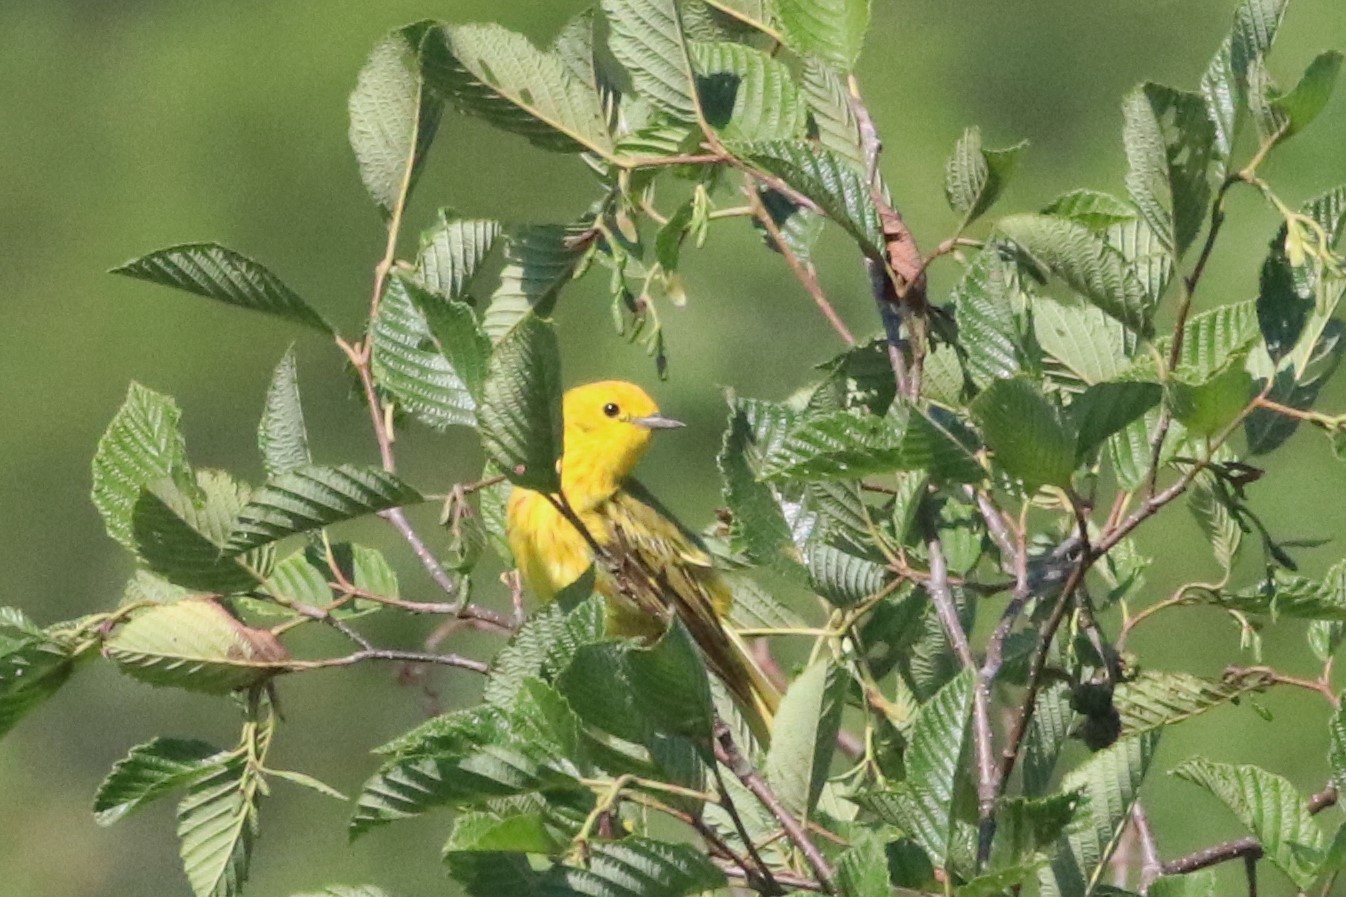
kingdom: Animalia
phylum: Chordata
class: Aves
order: Passeriformes
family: Parulidae
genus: Setophaga
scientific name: Setophaga petechia
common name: Yellow warbler
